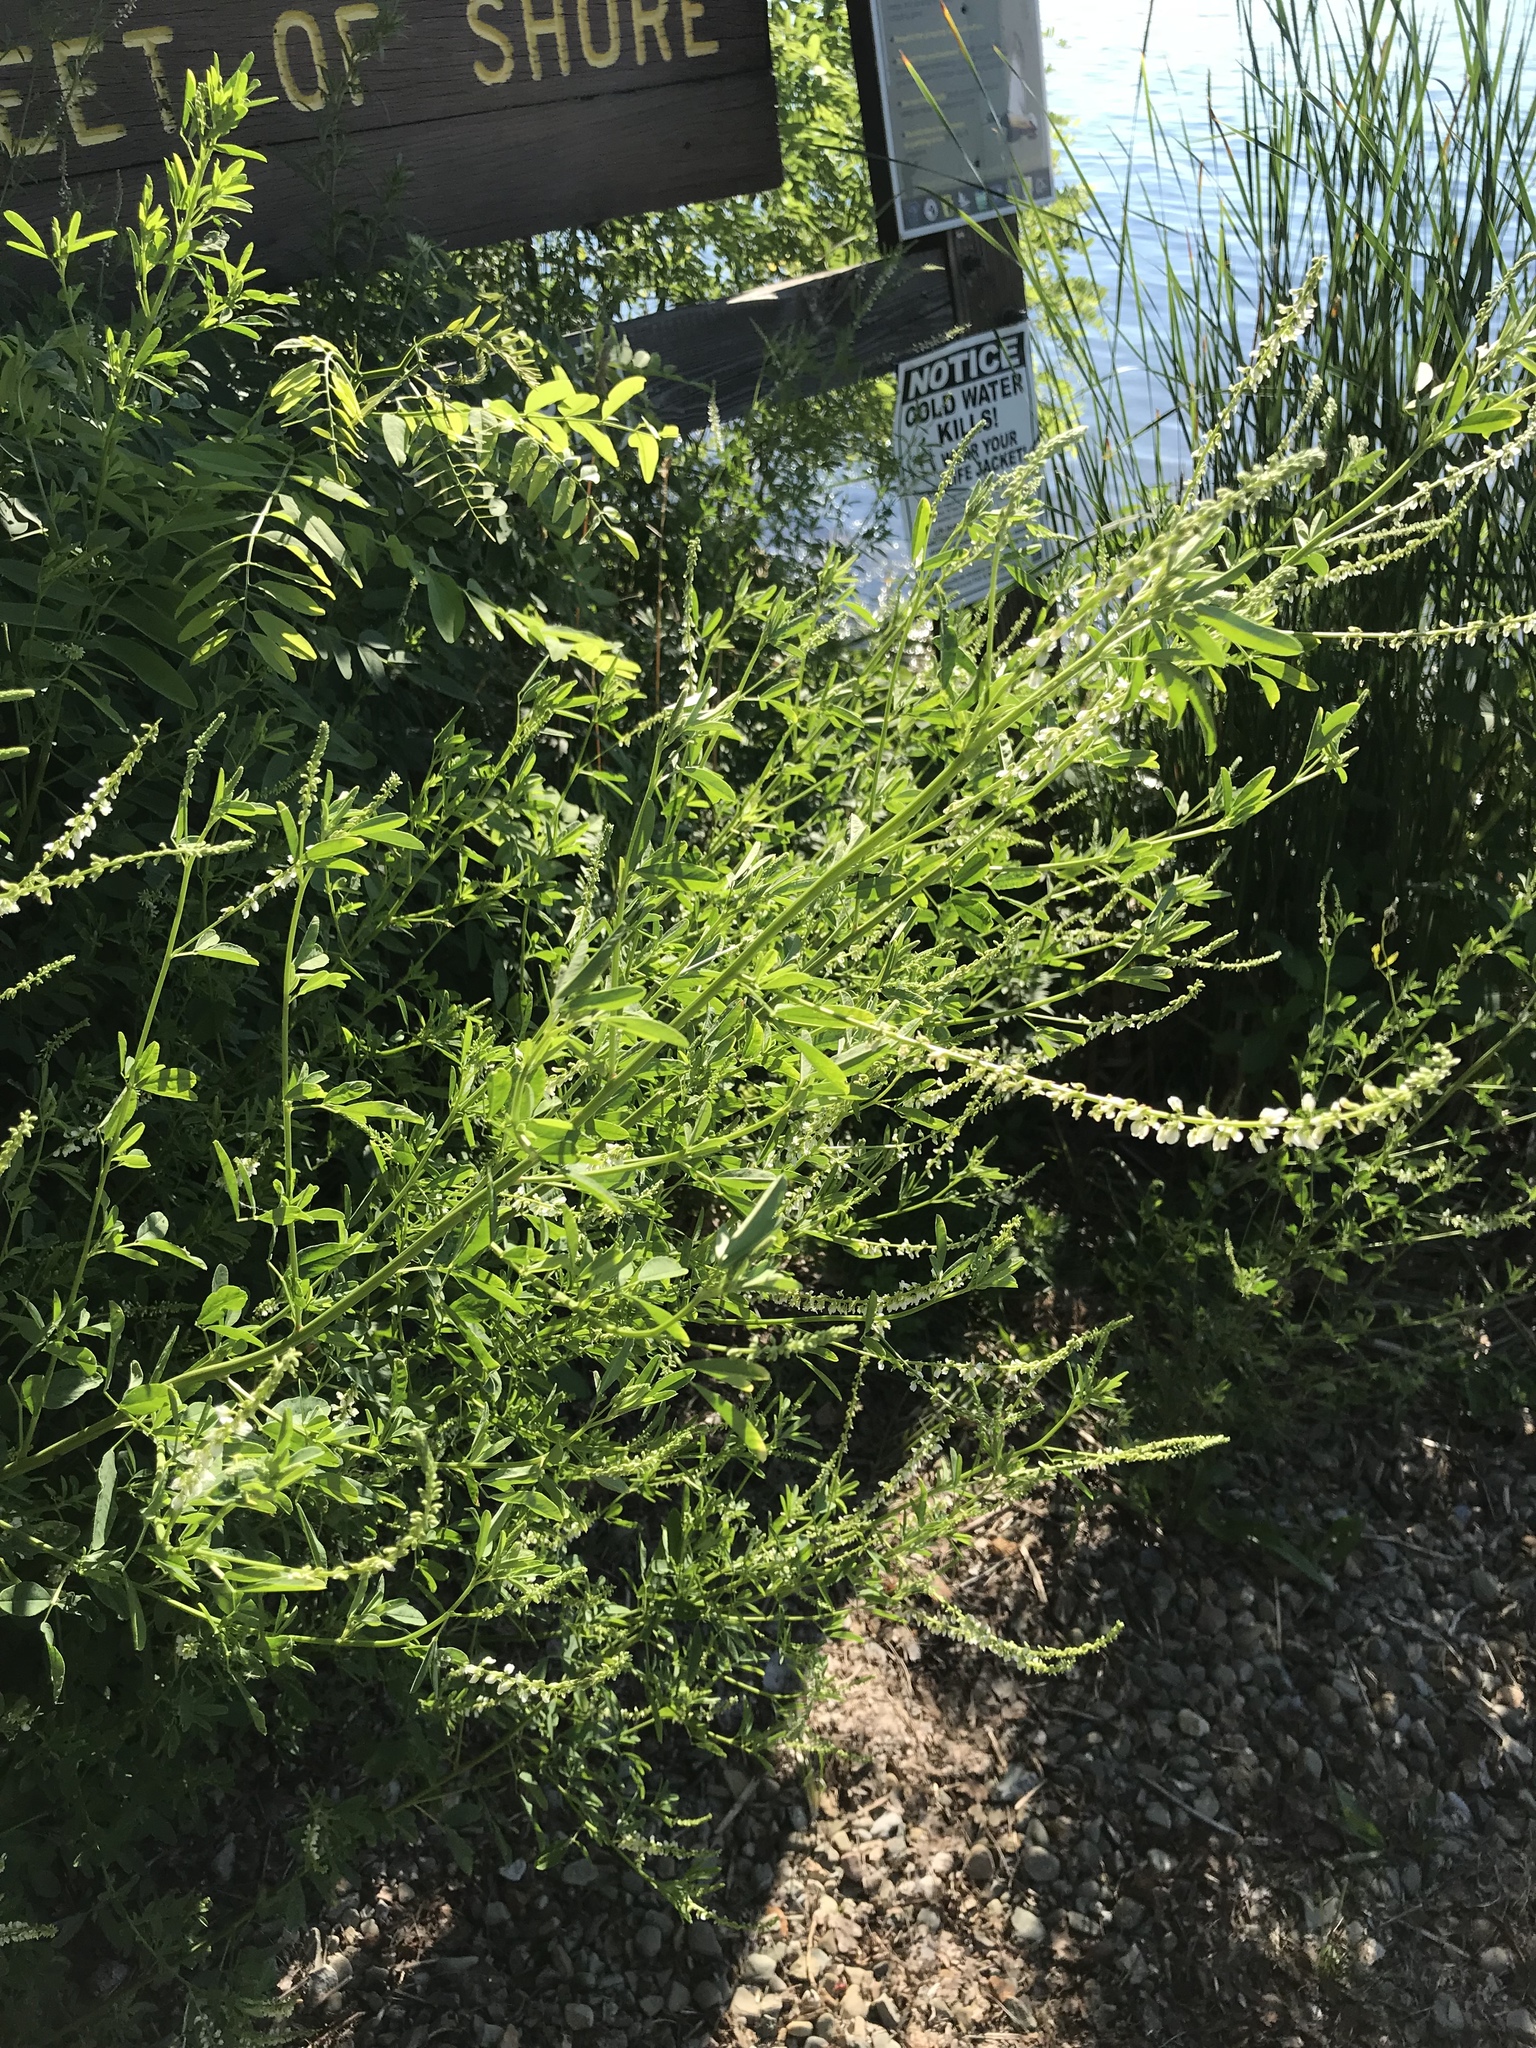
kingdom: Plantae
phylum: Tracheophyta
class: Magnoliopsida
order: Fabales
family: Fabaceae
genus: Melilotus
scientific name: Melilotus albus
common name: White melilot
